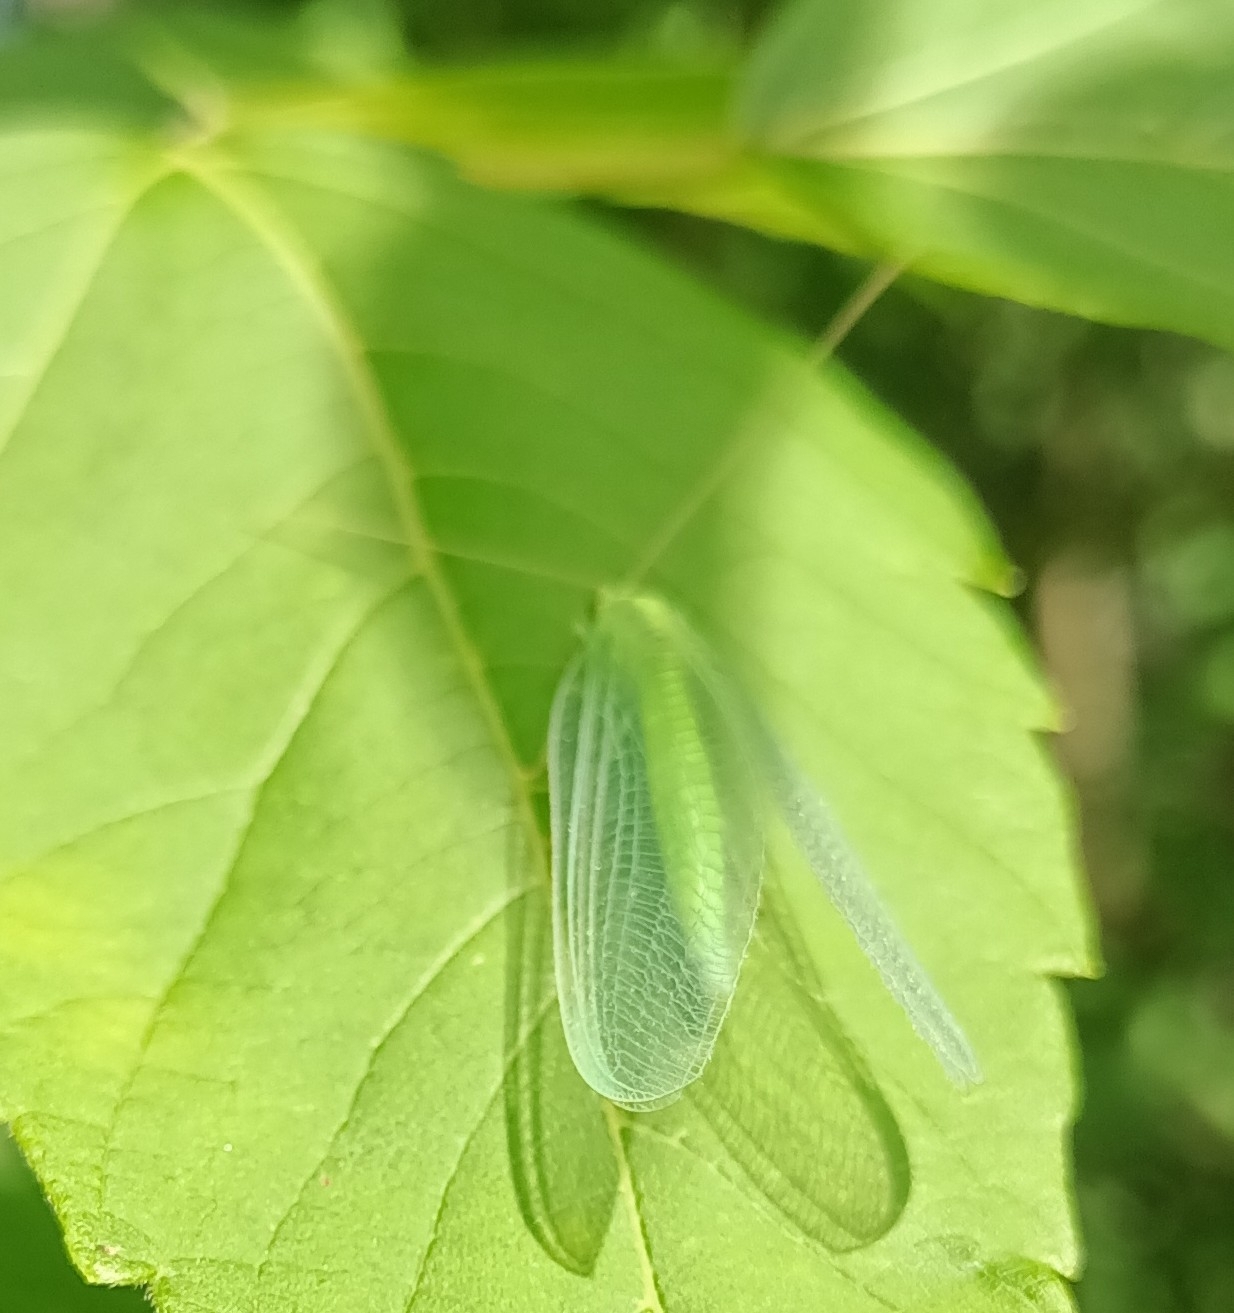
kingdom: Animalia
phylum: Arthropoda
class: Insecta
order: Neuroptera
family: Chrysopidae
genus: Nineta
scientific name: Nineta vittata
